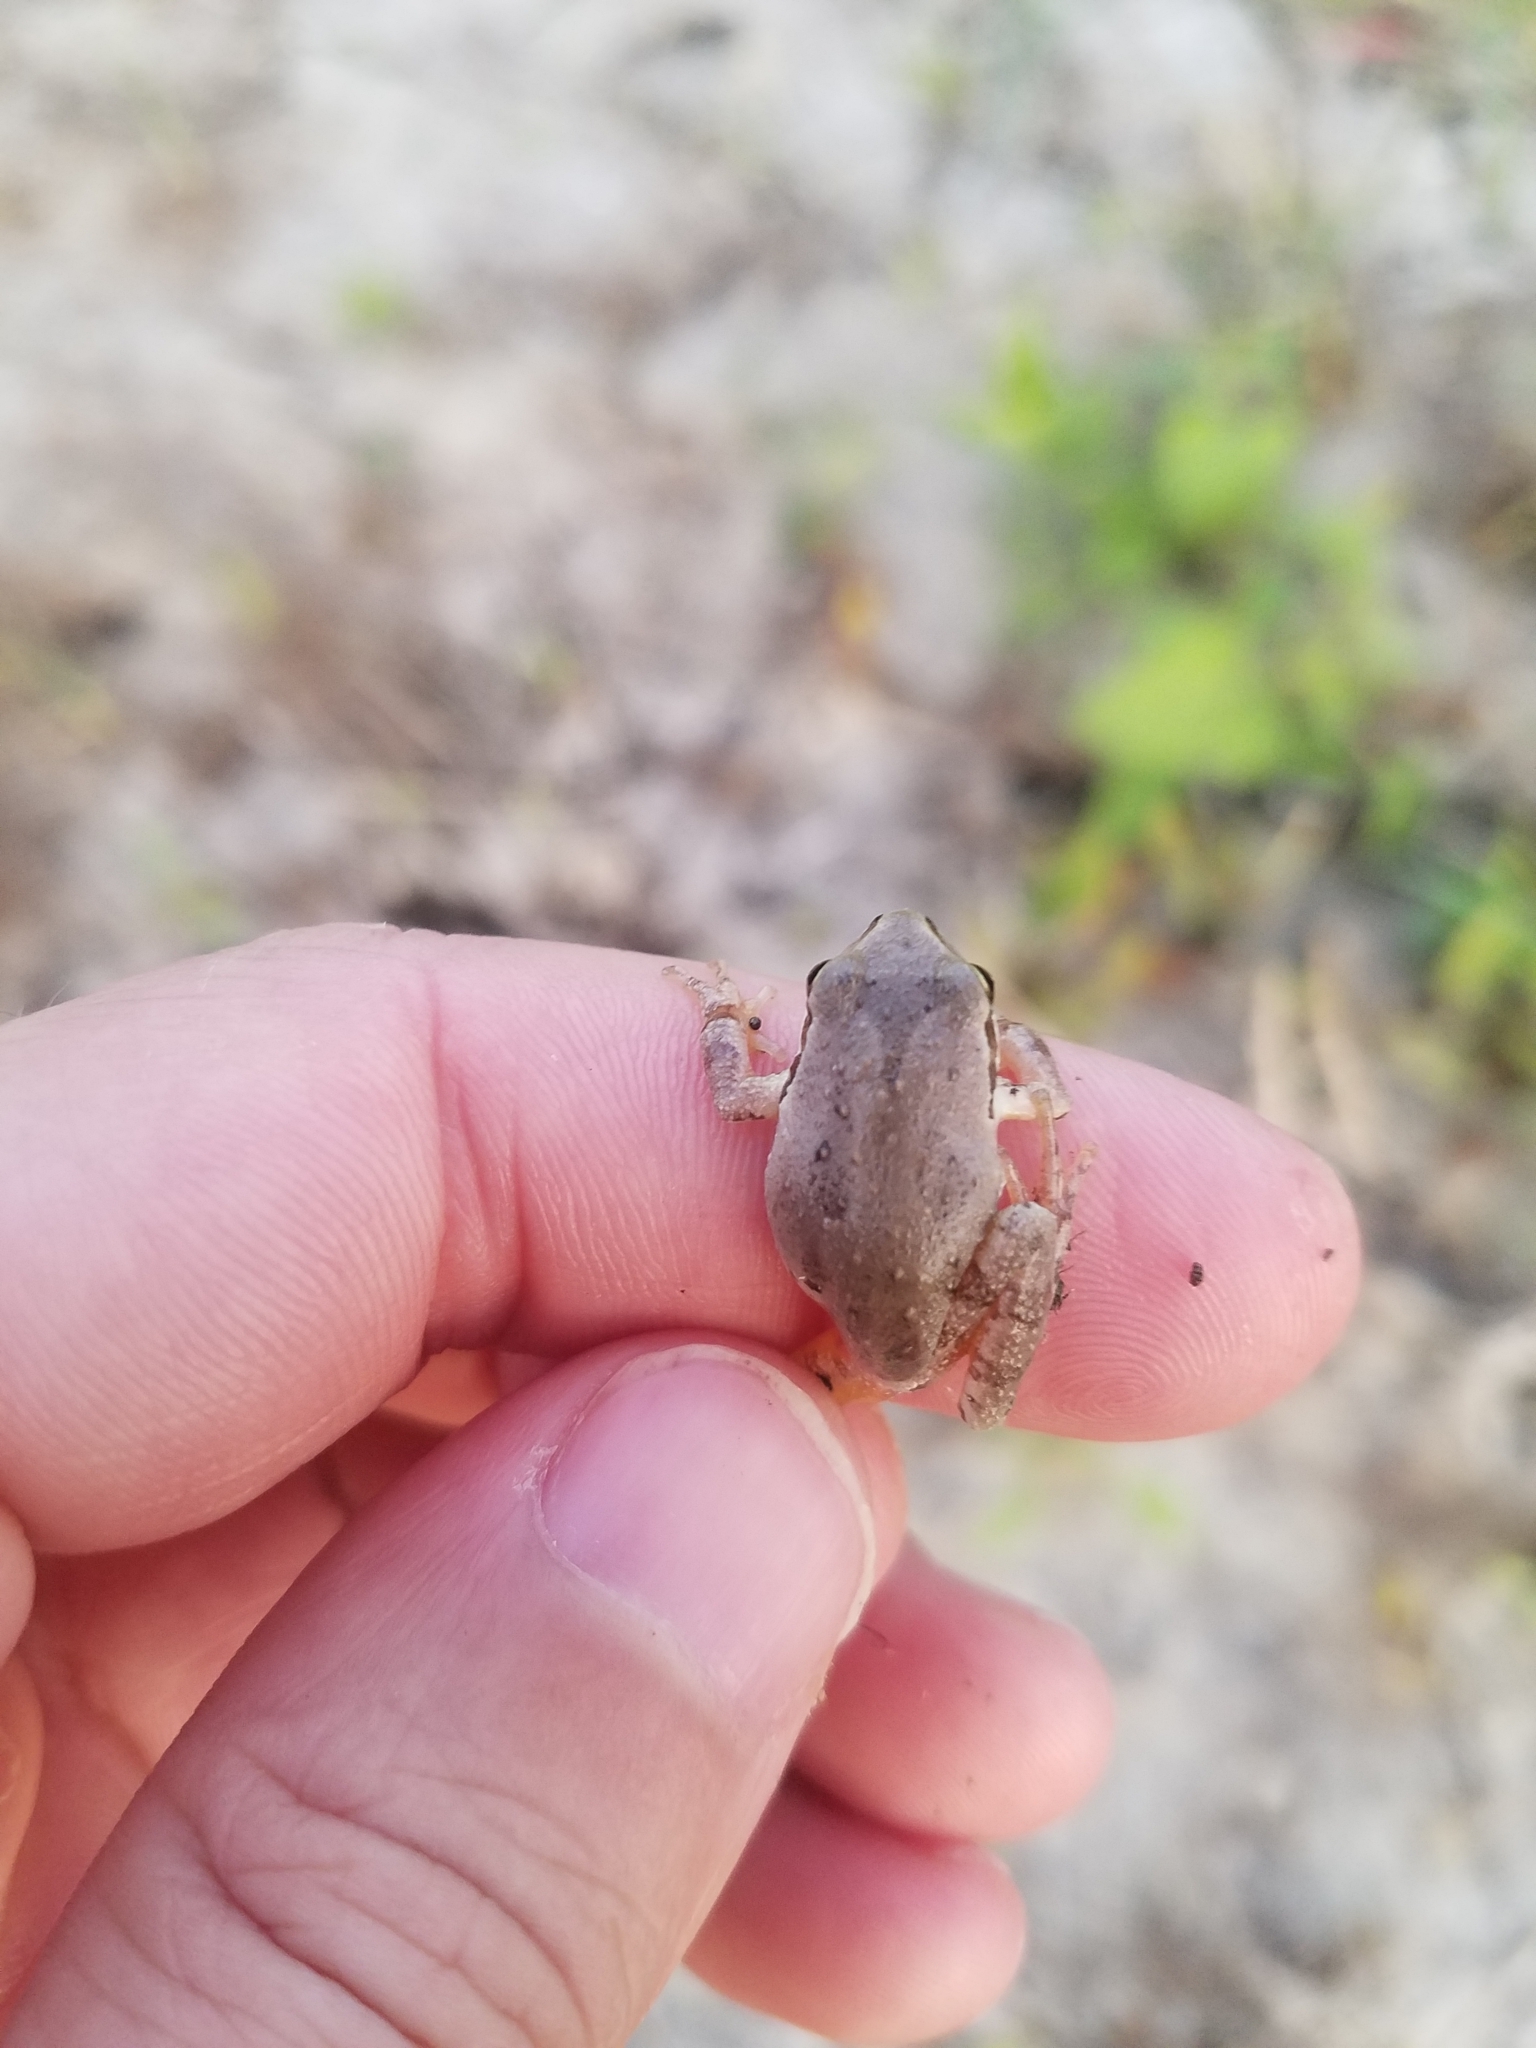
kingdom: Animalia
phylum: Chordata
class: Amphibia
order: Anura
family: Hylidae
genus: Pseudacris
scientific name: Pseudacris regilla
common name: Pacific chorus frog
